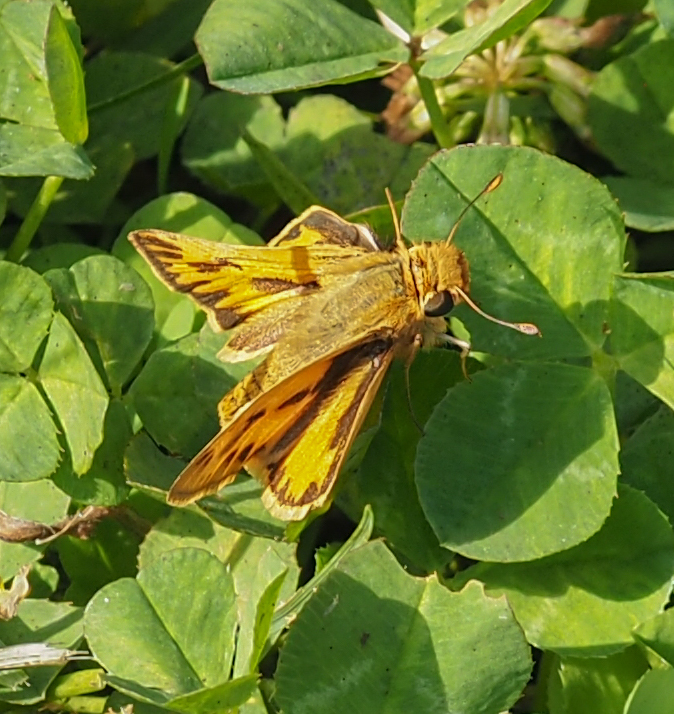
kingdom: Animalia
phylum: Arthropoda
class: Insecta
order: Lepidoptera
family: Hesperiidae
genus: Hylephila
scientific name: Hylephila phyleus
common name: Fiery skipper
